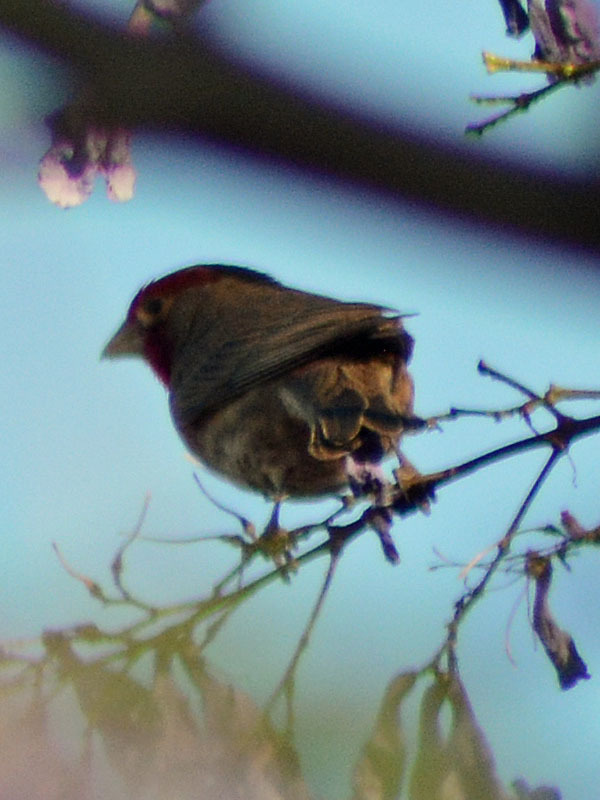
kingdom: Animalia
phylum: Chordata
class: Aves
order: Passeriformes
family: Fringillidae
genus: Haemorhous
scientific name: Haemorhous mexicanus
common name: House finch
